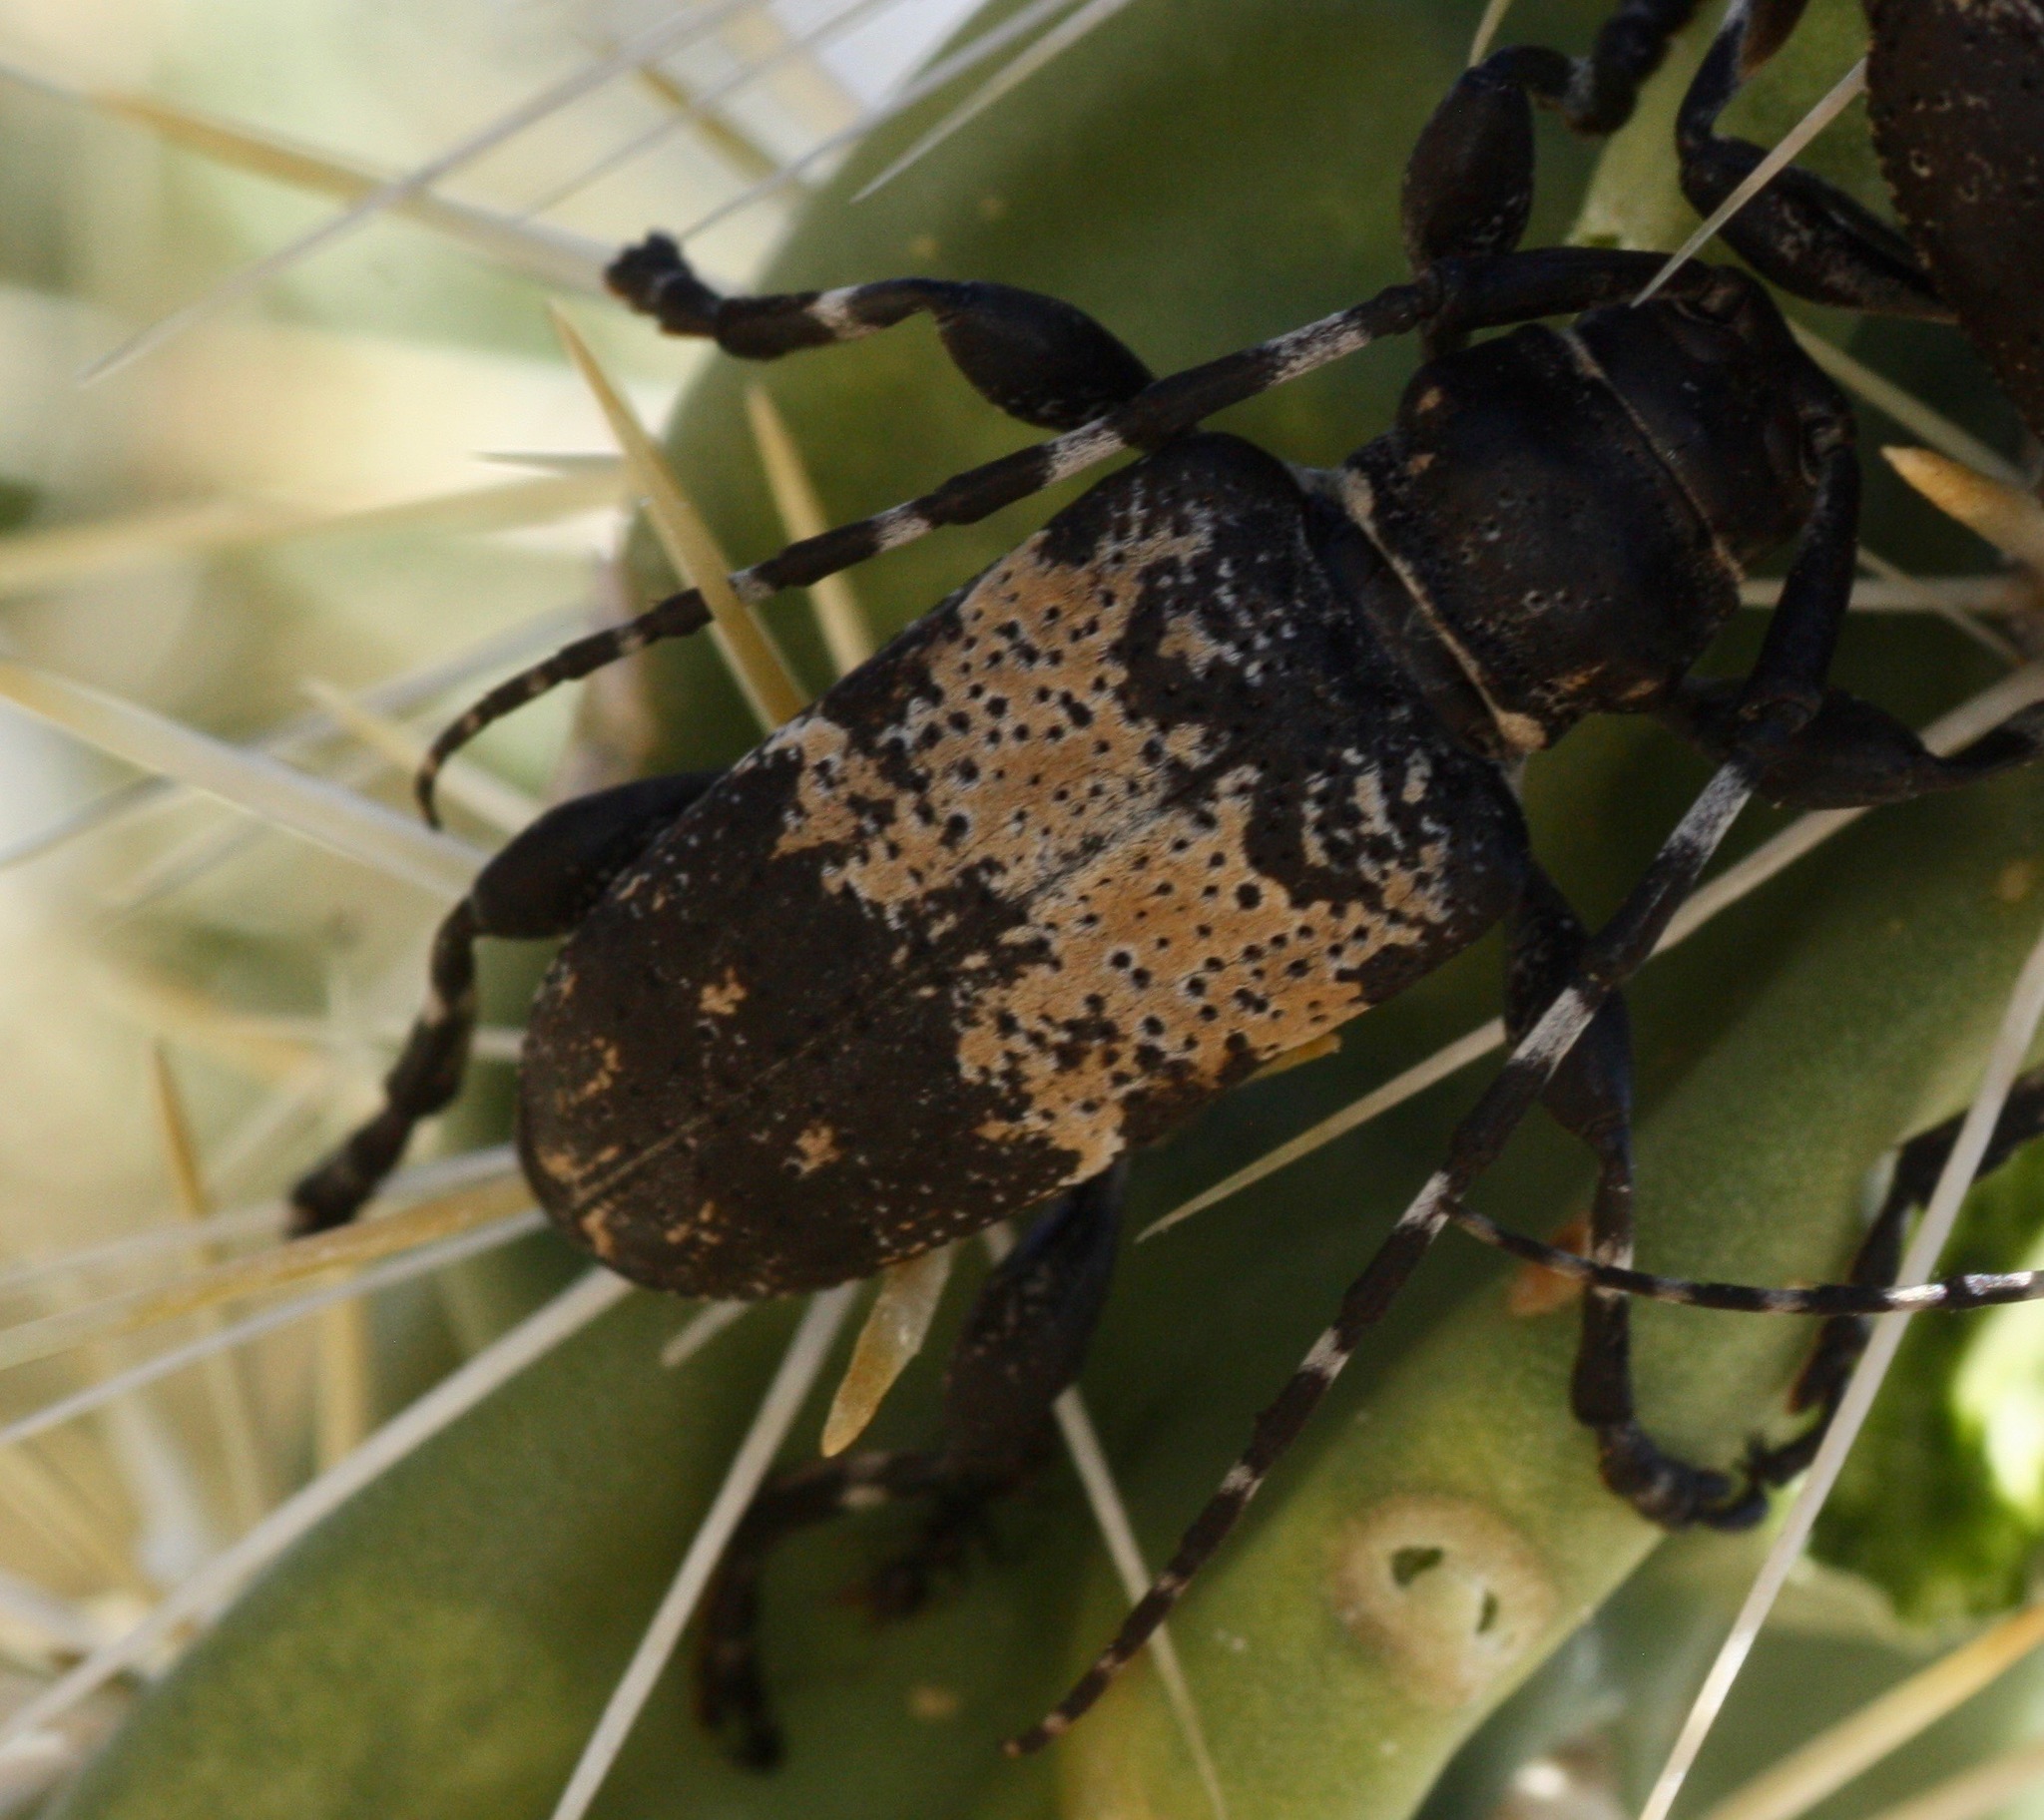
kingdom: Animalia
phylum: Arthropoda
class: Insecta
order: Coleoptera
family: Cerambycidae
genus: Coenopoeus
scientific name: Coenopoeus palmeri
